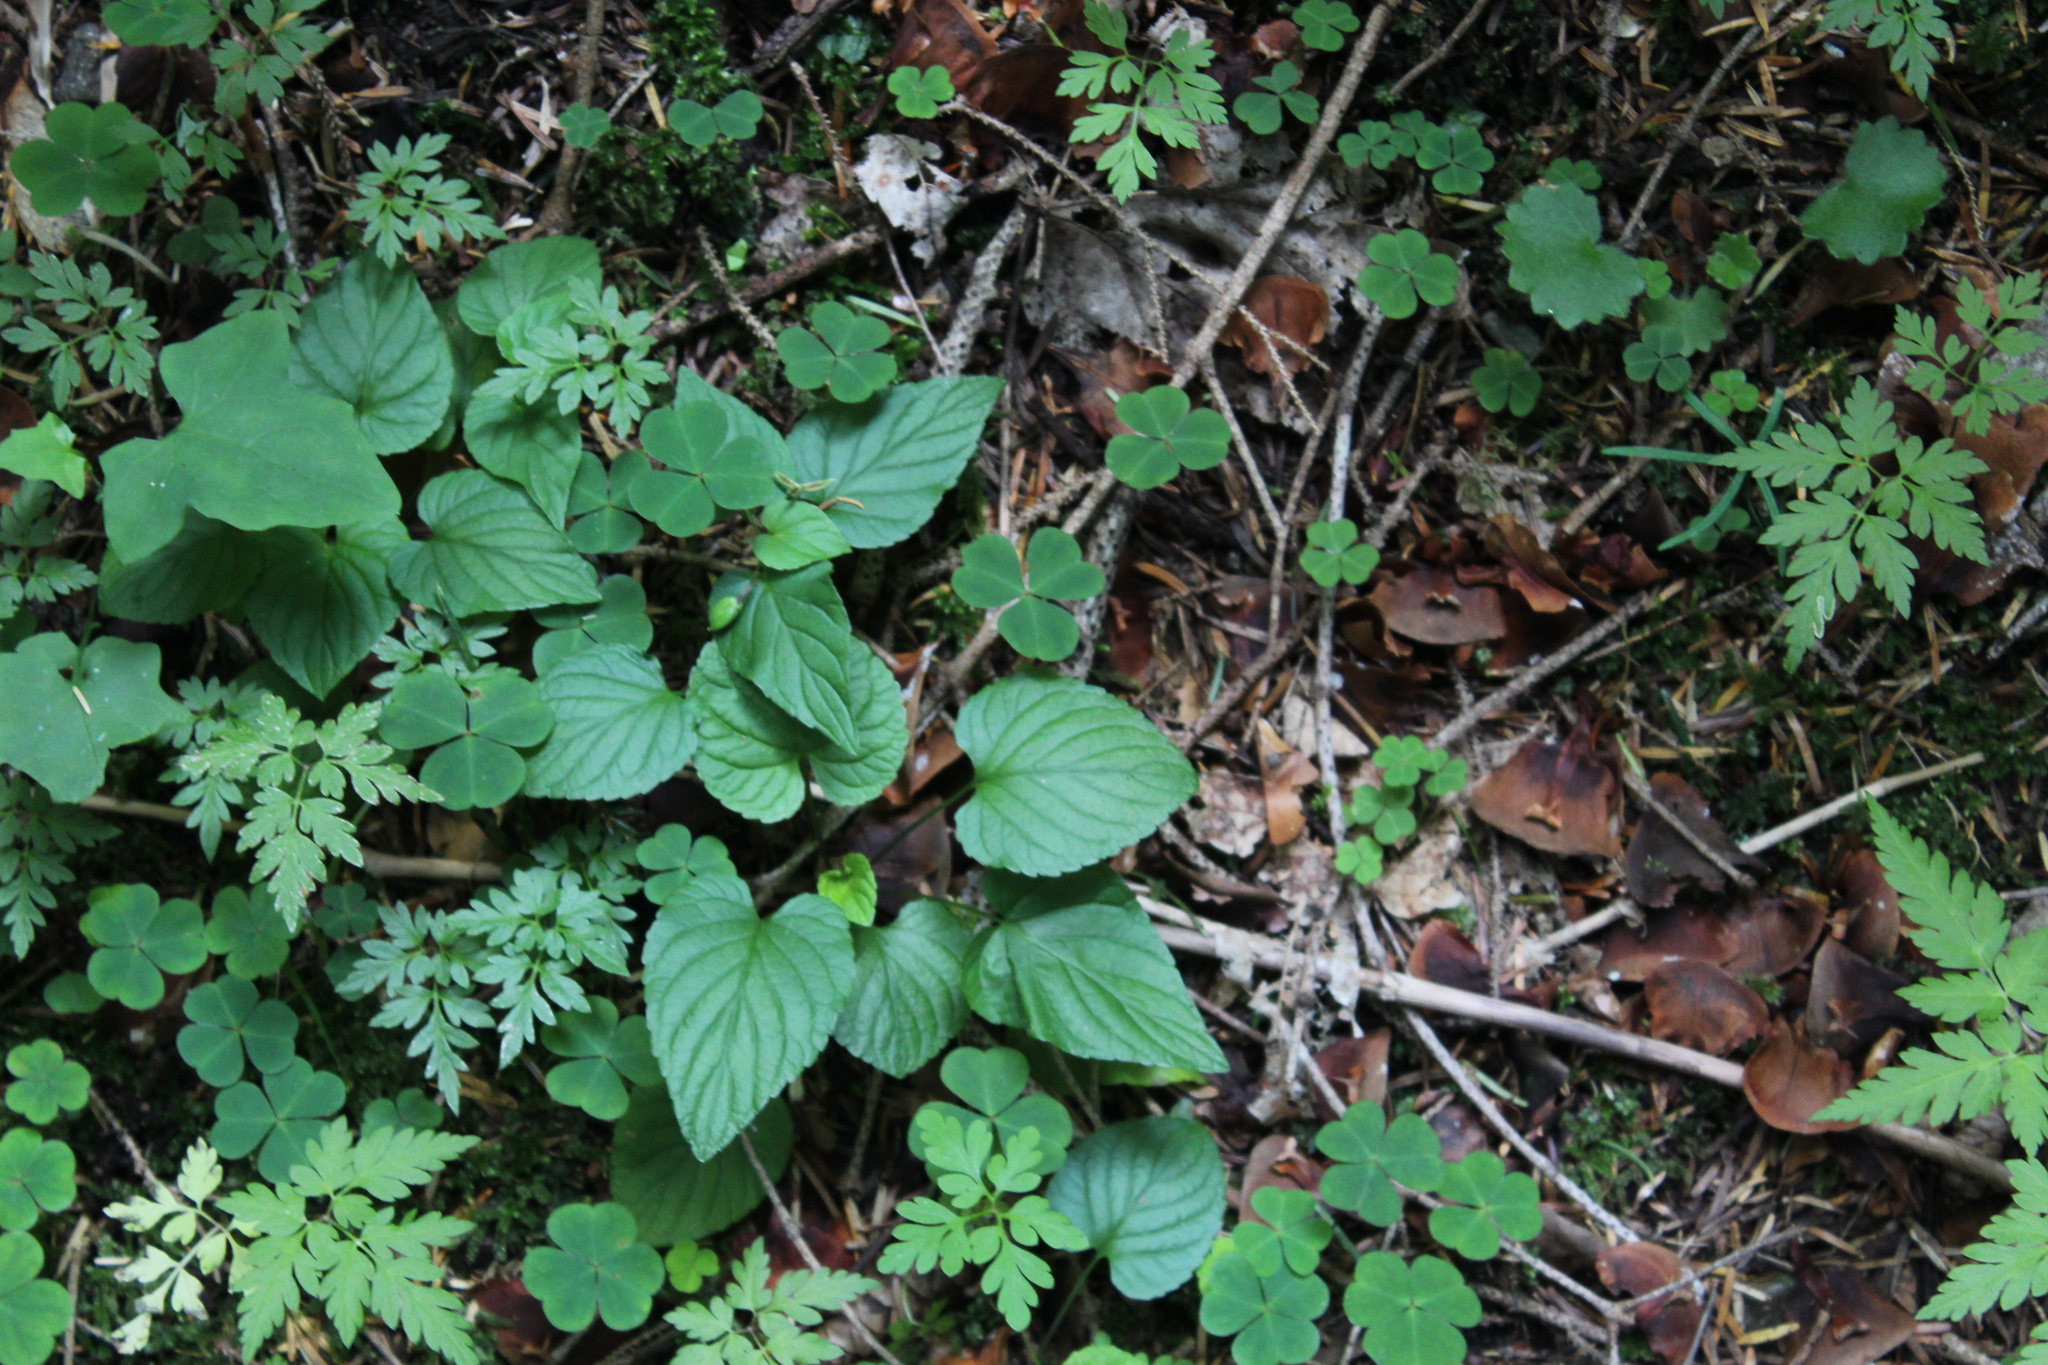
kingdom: Plantae
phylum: Tracheophyta
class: Magnoliopsida
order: Malpighiales
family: Violaceae
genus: Viola
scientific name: Viola reichenbachiana
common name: Early dog-violet
